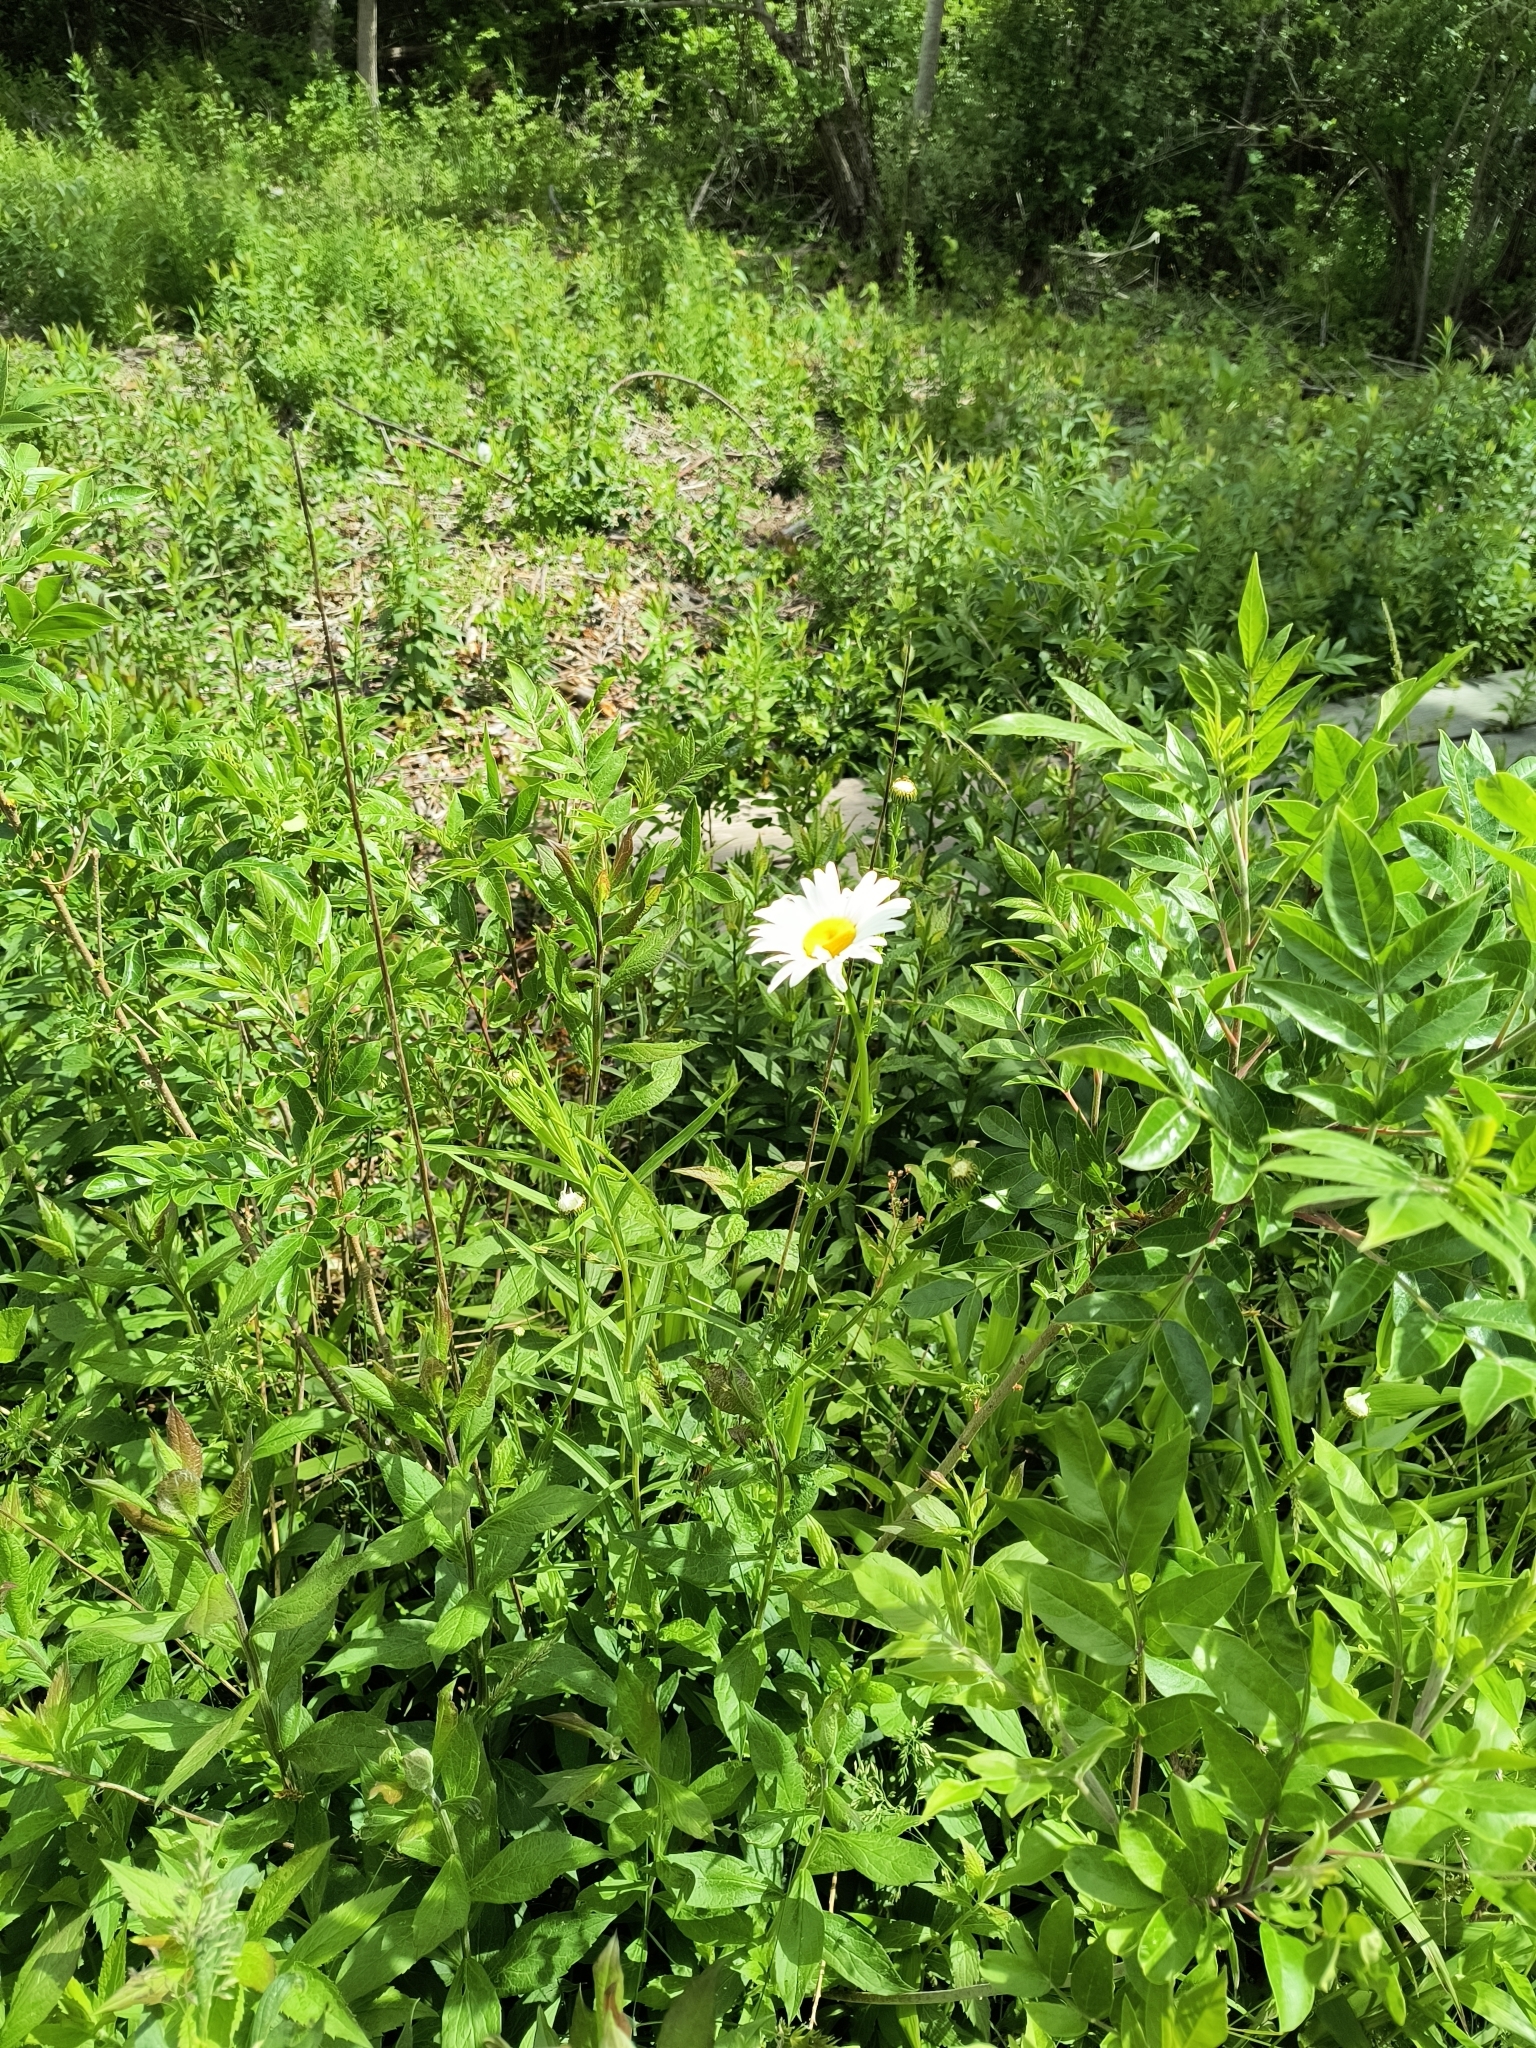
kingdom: Plantae
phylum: Tracheophyta
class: Magnoliopsida
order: Asterales
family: Asteraceae
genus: Leucanthemum
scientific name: Leucanthemum vulgare
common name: Oxeye daisy
